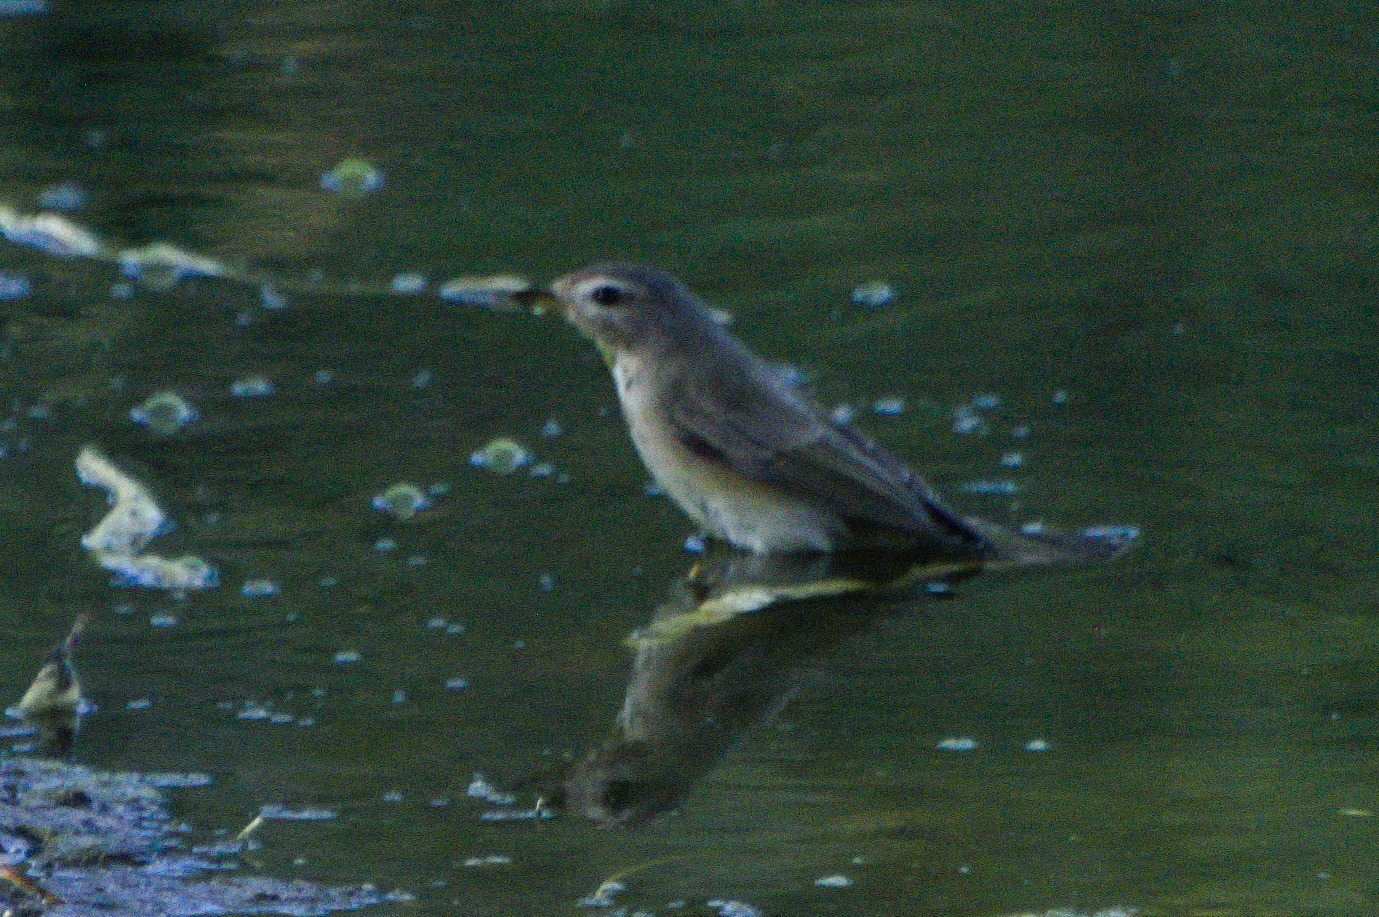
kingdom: Animalia
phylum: Chordata
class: Aves
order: Passeriformes
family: Vireonidae
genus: Vireo
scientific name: Vireo gilvus
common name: Warbling vireo
